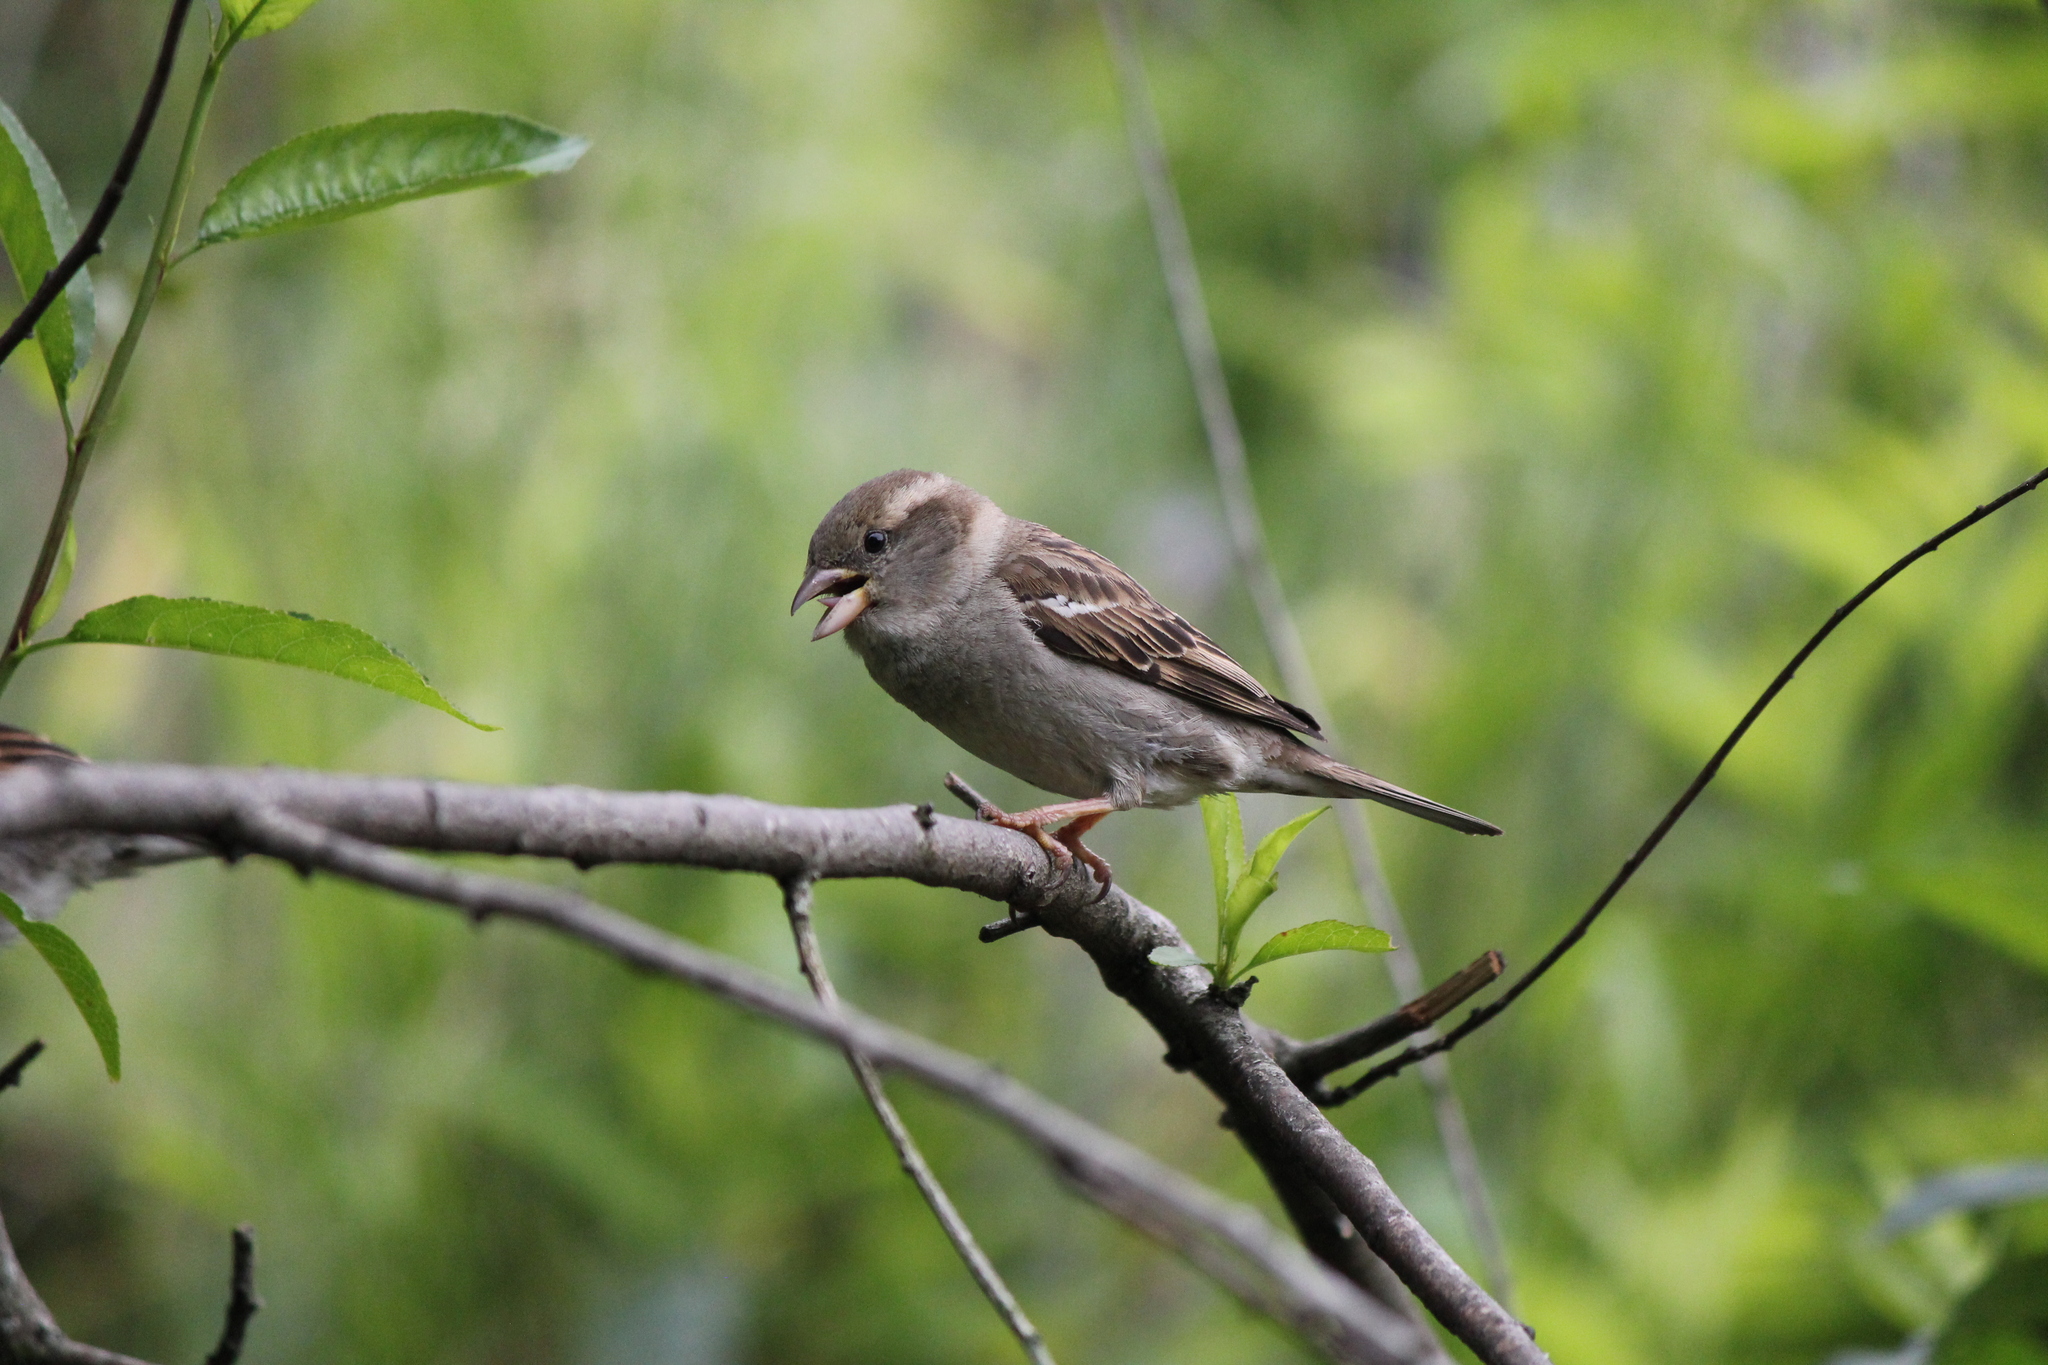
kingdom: Animalia
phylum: Chordata
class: Aves
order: Passeriformes
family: Passeridae
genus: Passer
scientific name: Passer domesticus
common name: House sparrow
